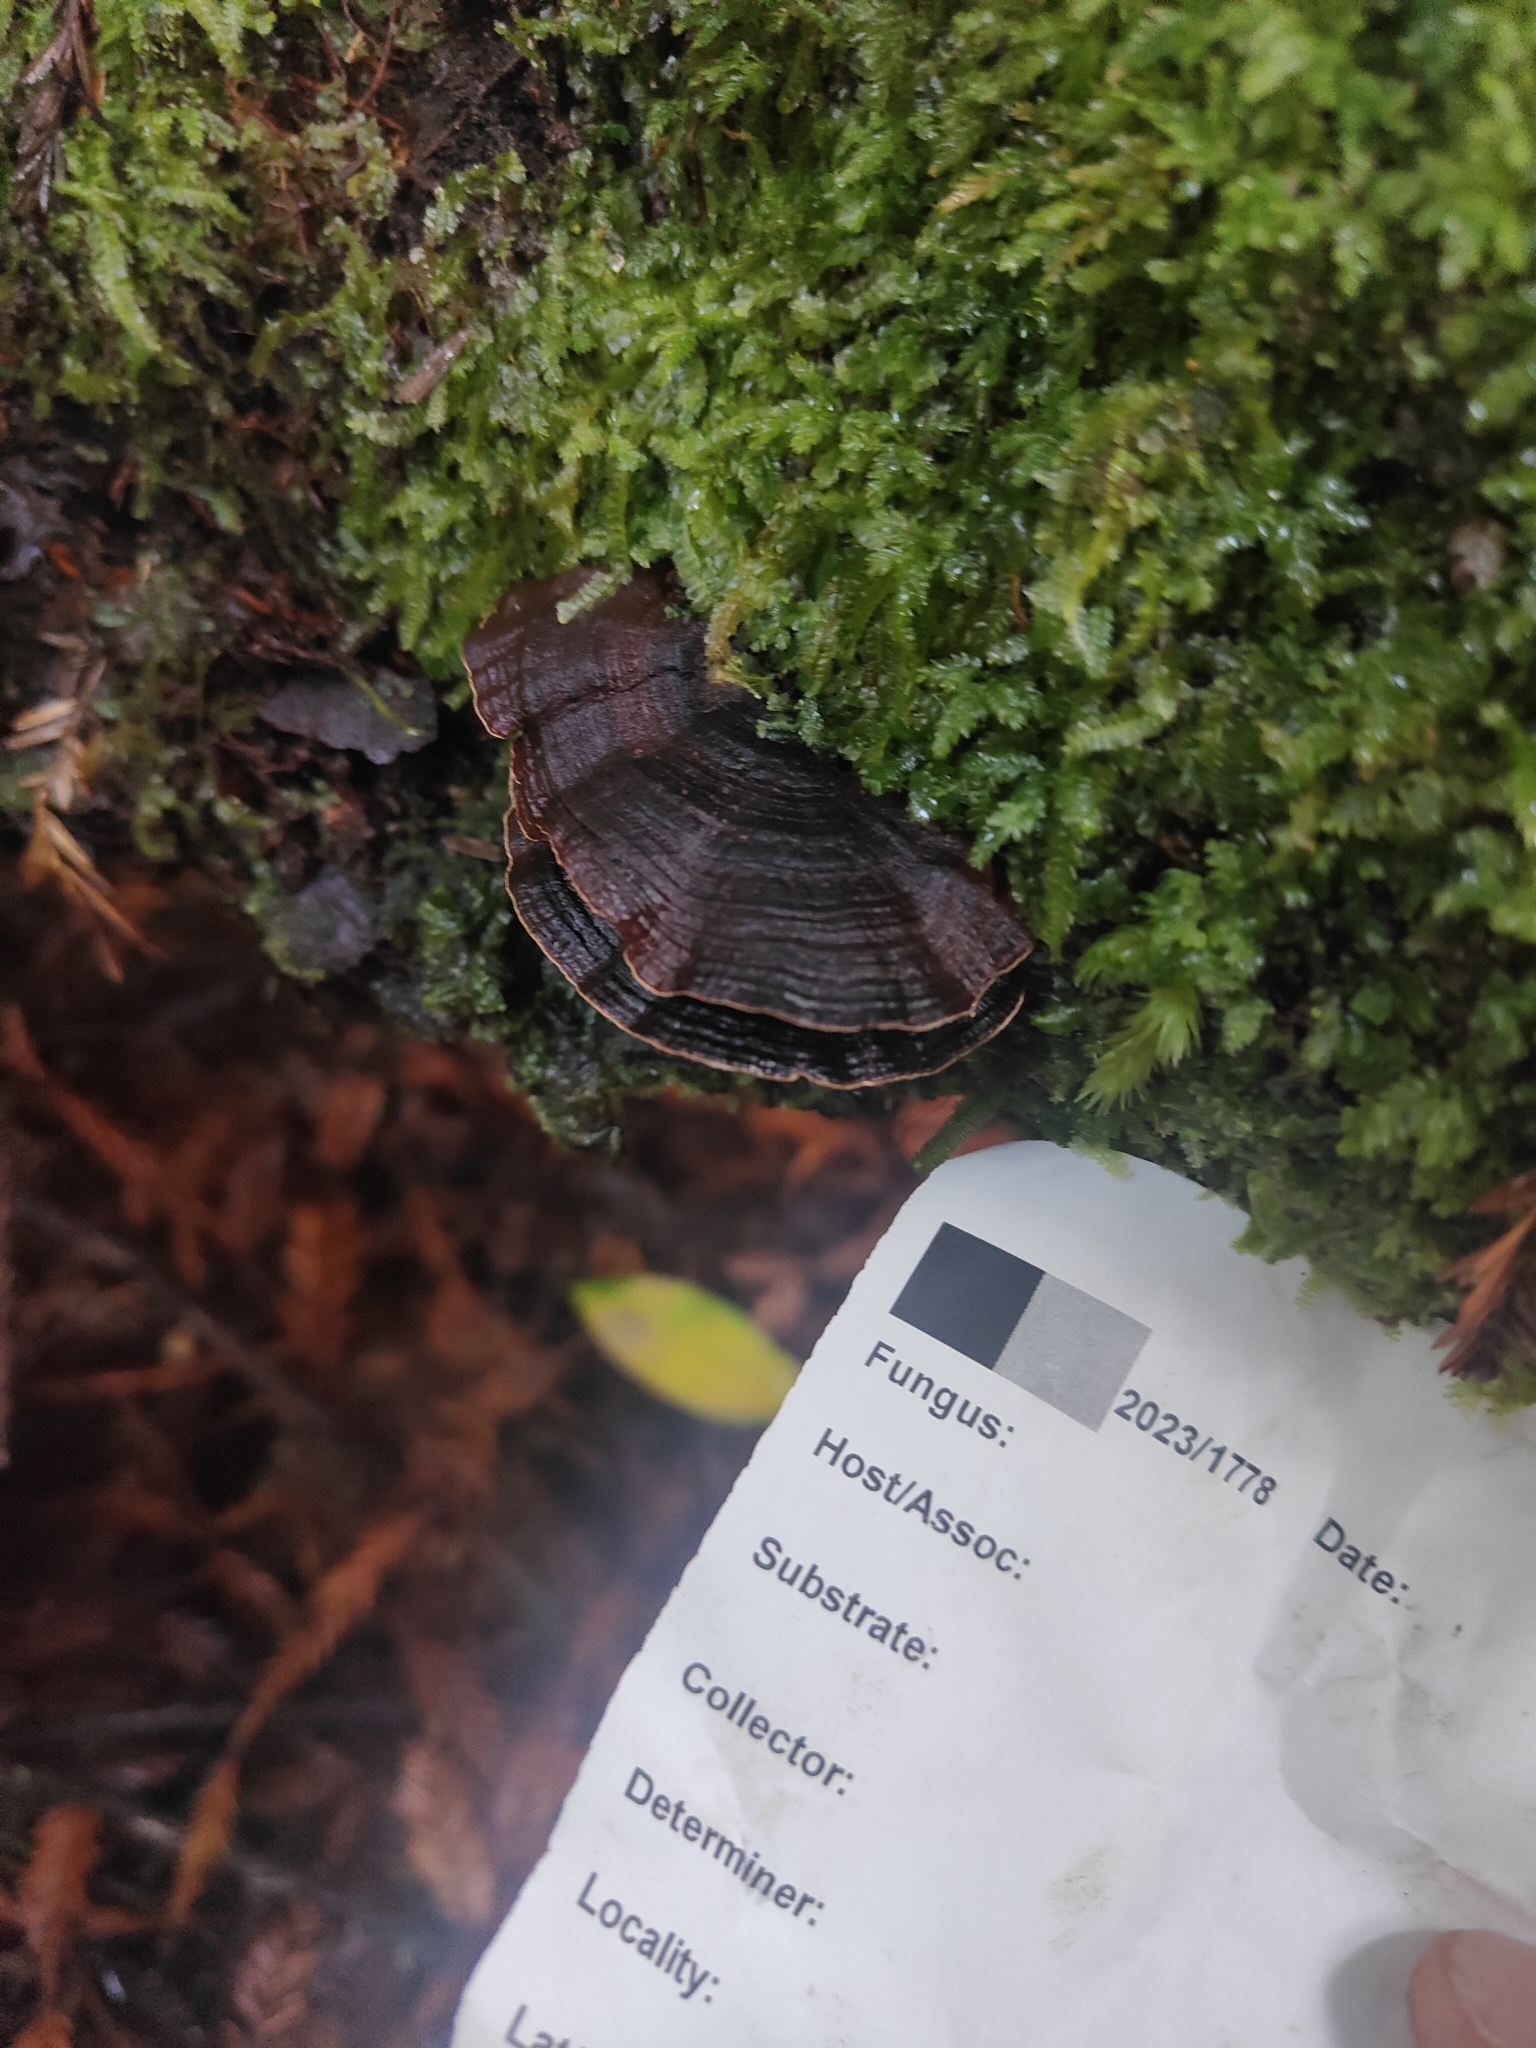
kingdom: Fungi
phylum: Basidiomycota
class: Agaricomycetes
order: Hymenochaetales
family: Hymenochaetaceae
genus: Hymenochaete
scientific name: Hymenochaete microcycla
